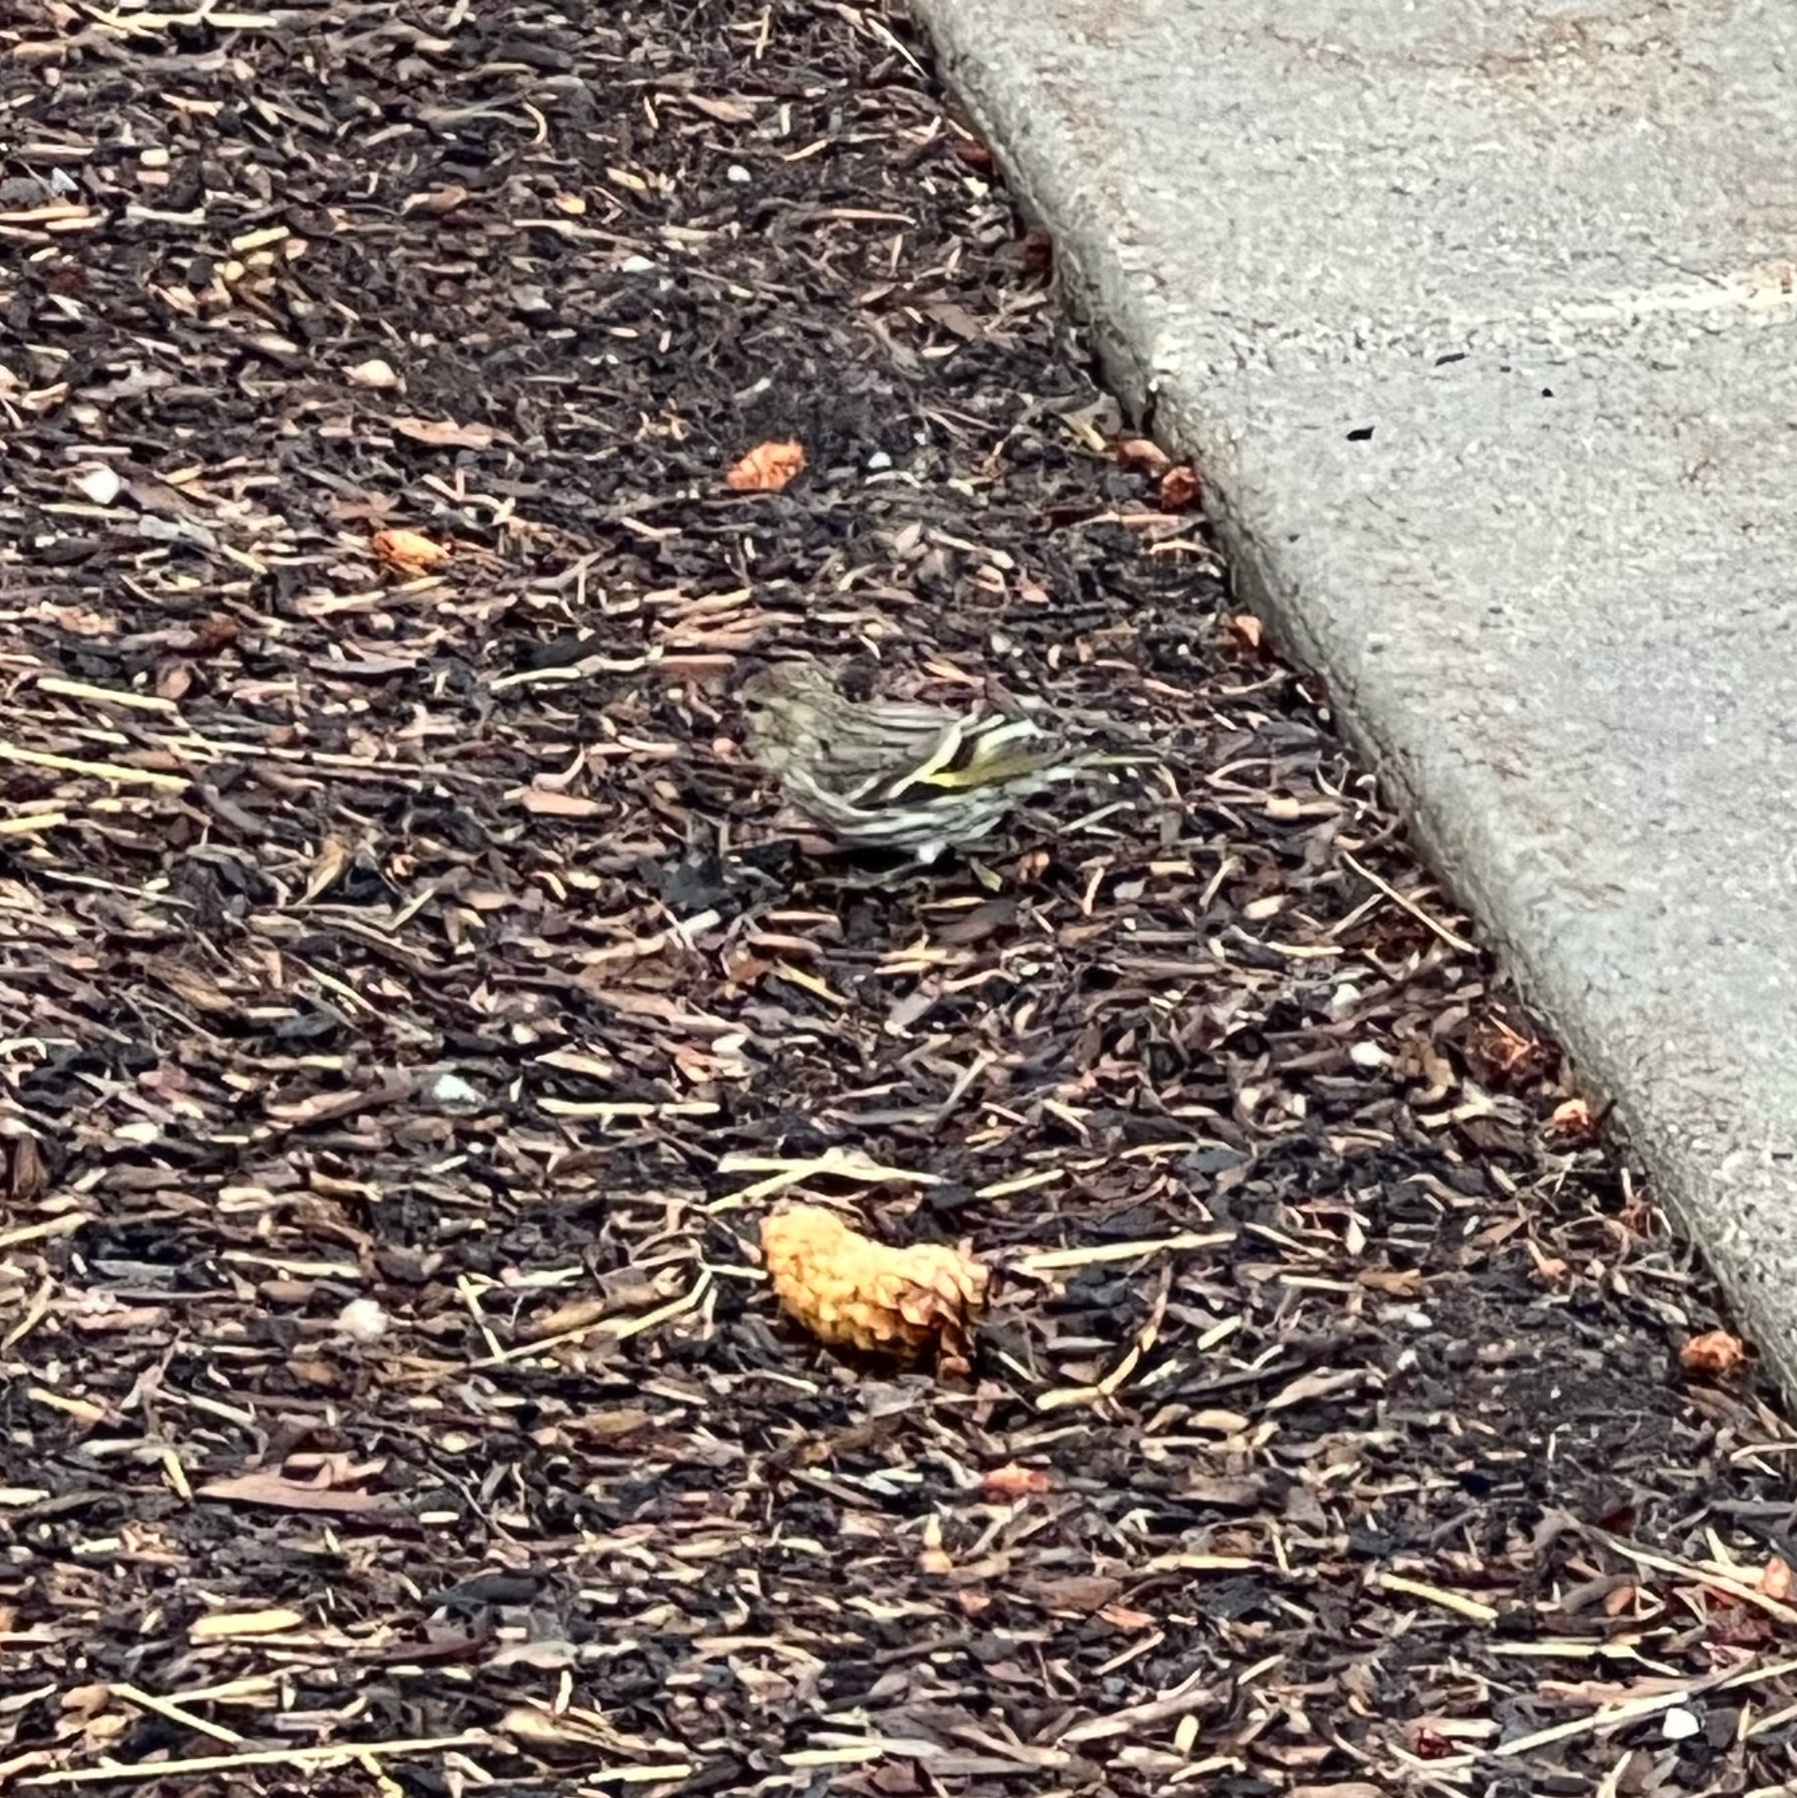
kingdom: Animalia
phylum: Chordata
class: Aves
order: Passeriformes
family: Fringillidae
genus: Spinus
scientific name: Spinus pinus
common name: Pine siskin
